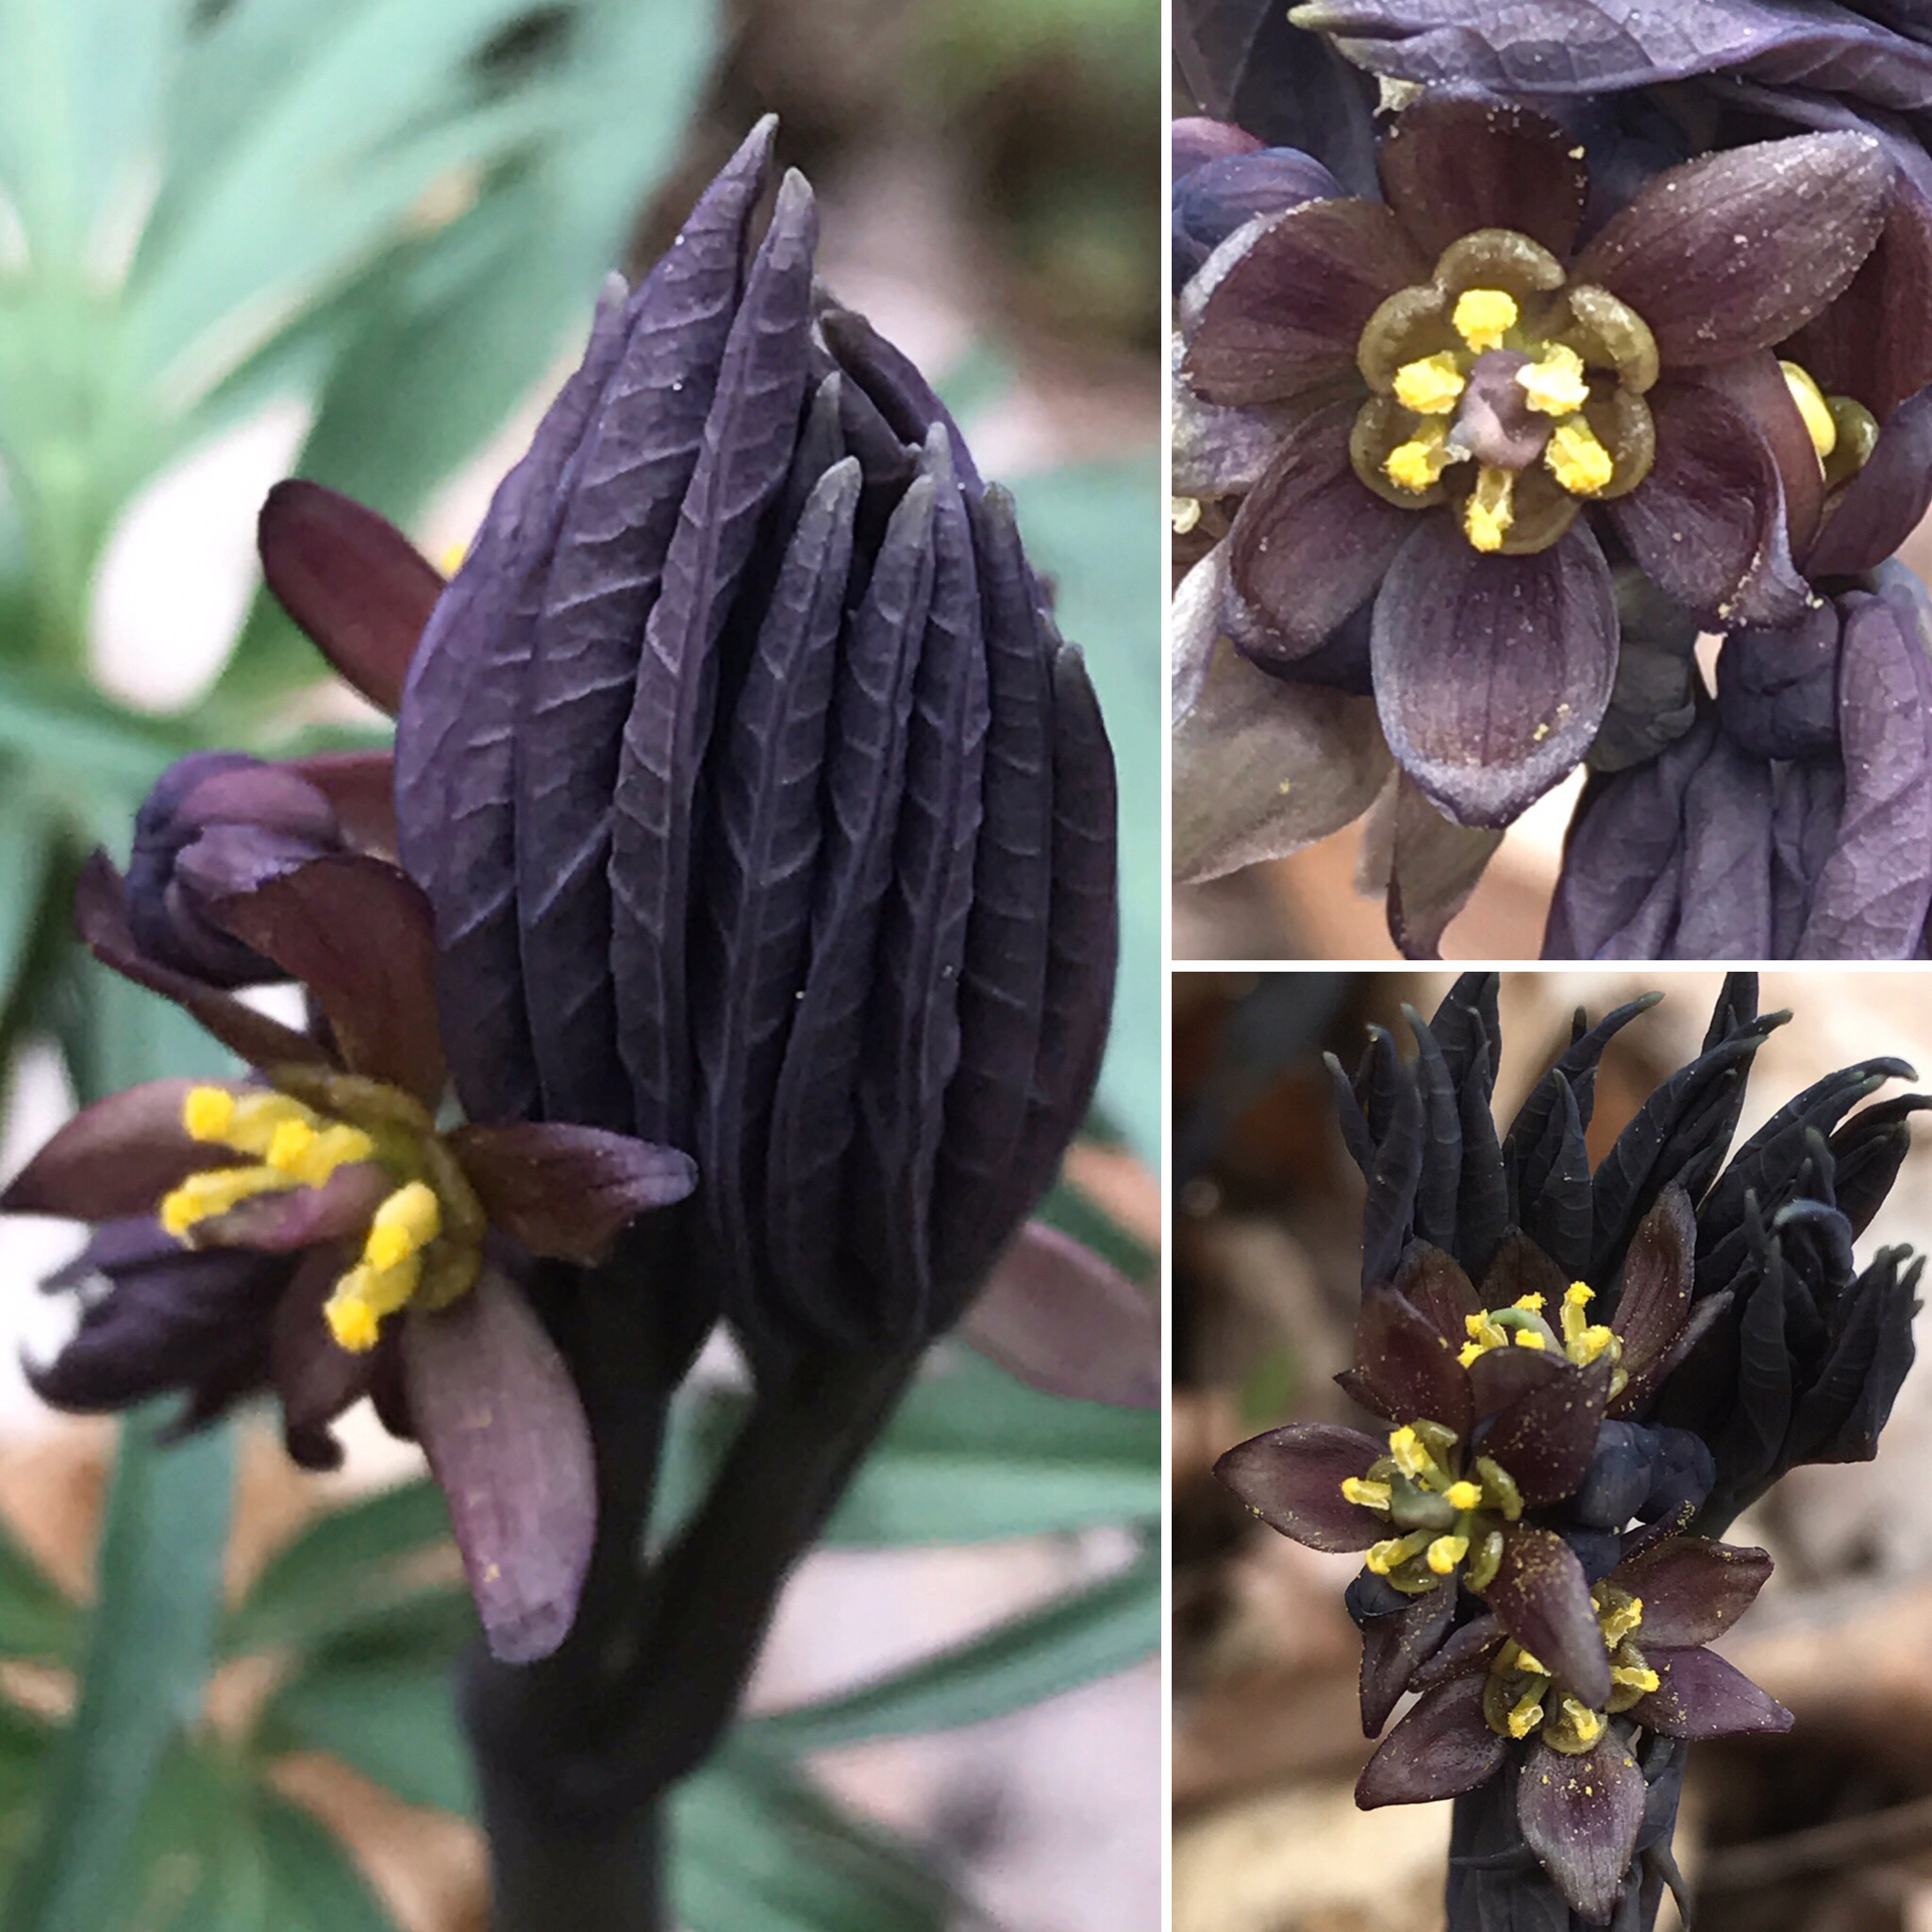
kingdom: Plantae
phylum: Tracheophyta
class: Magnoliopsida
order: Ranunculales
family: Berberidaceae
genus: Caulophyllum
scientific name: Caulophyllum giganteum
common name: Blue cohosh
